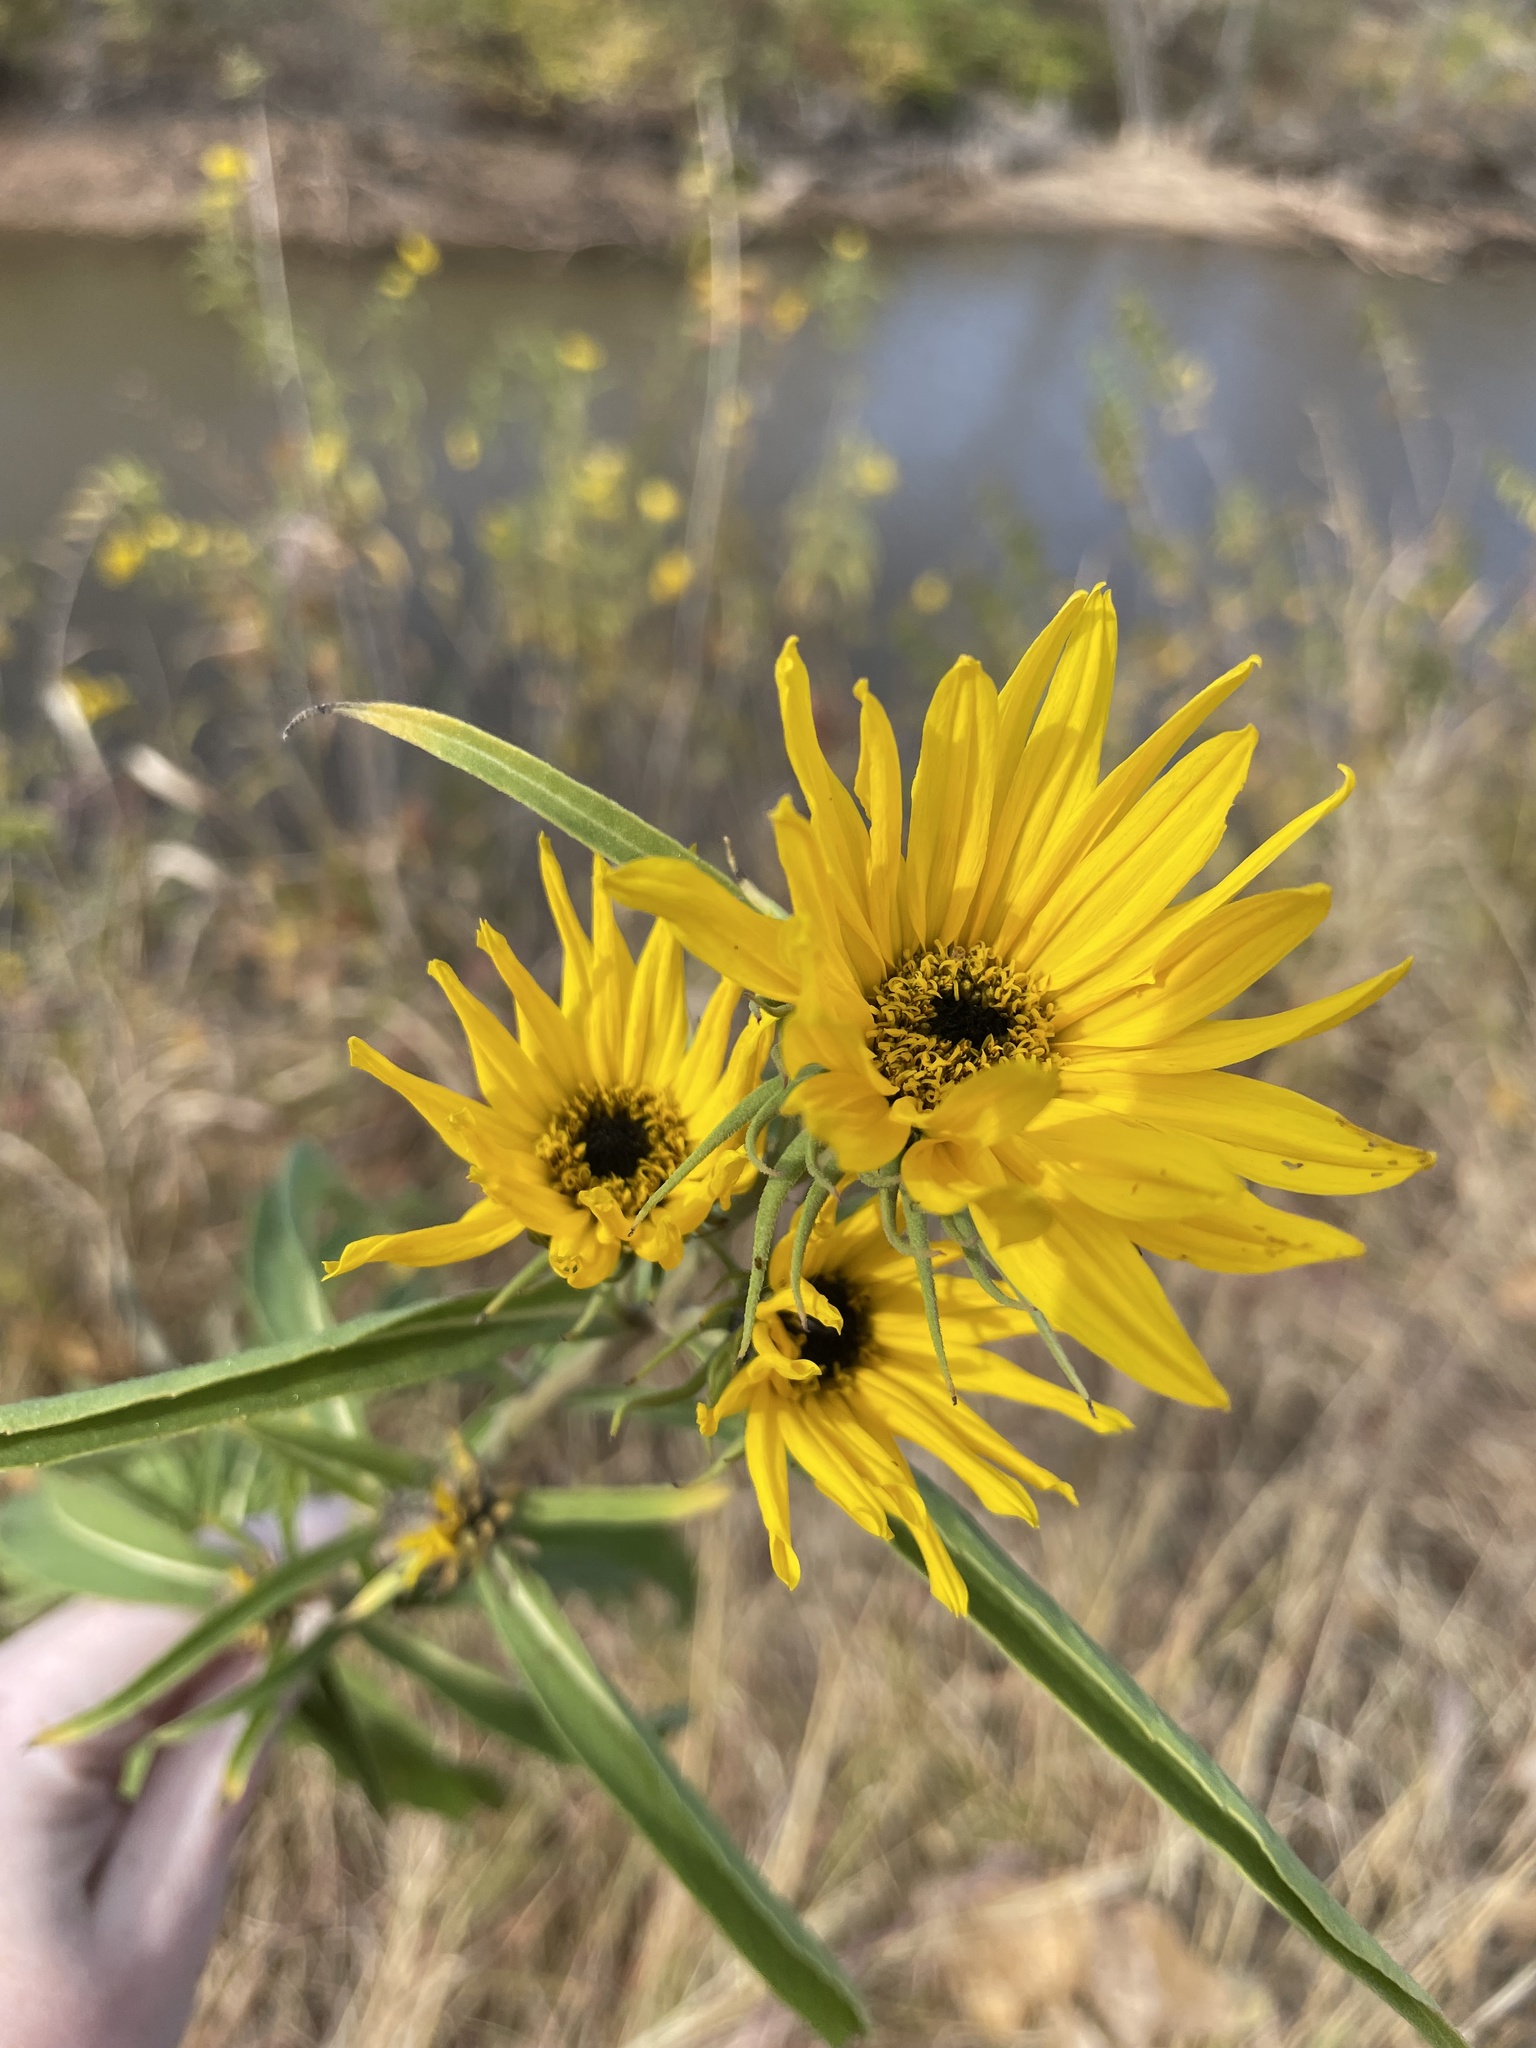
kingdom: Plantae
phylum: Tracheophyta
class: Magnoliopsida
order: Asterales
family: Asteraceae
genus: Helianthus
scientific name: Helianthus maximiliani
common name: Maximilian's sunflower
